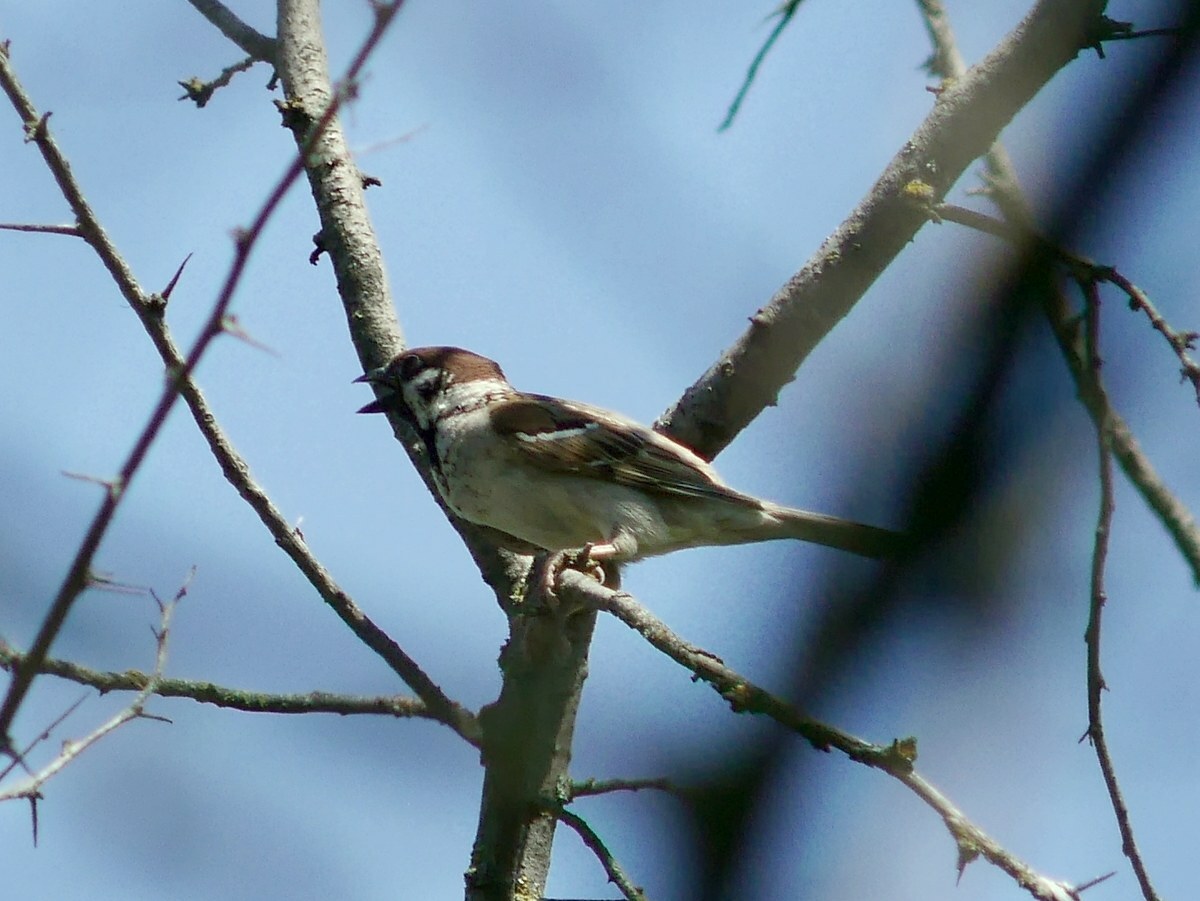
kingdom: Animalia
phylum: Chordata
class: Aves
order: Passeriformes
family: Passeridae
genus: Passer
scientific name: Passer montanus
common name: Eurasian tree sparrow
